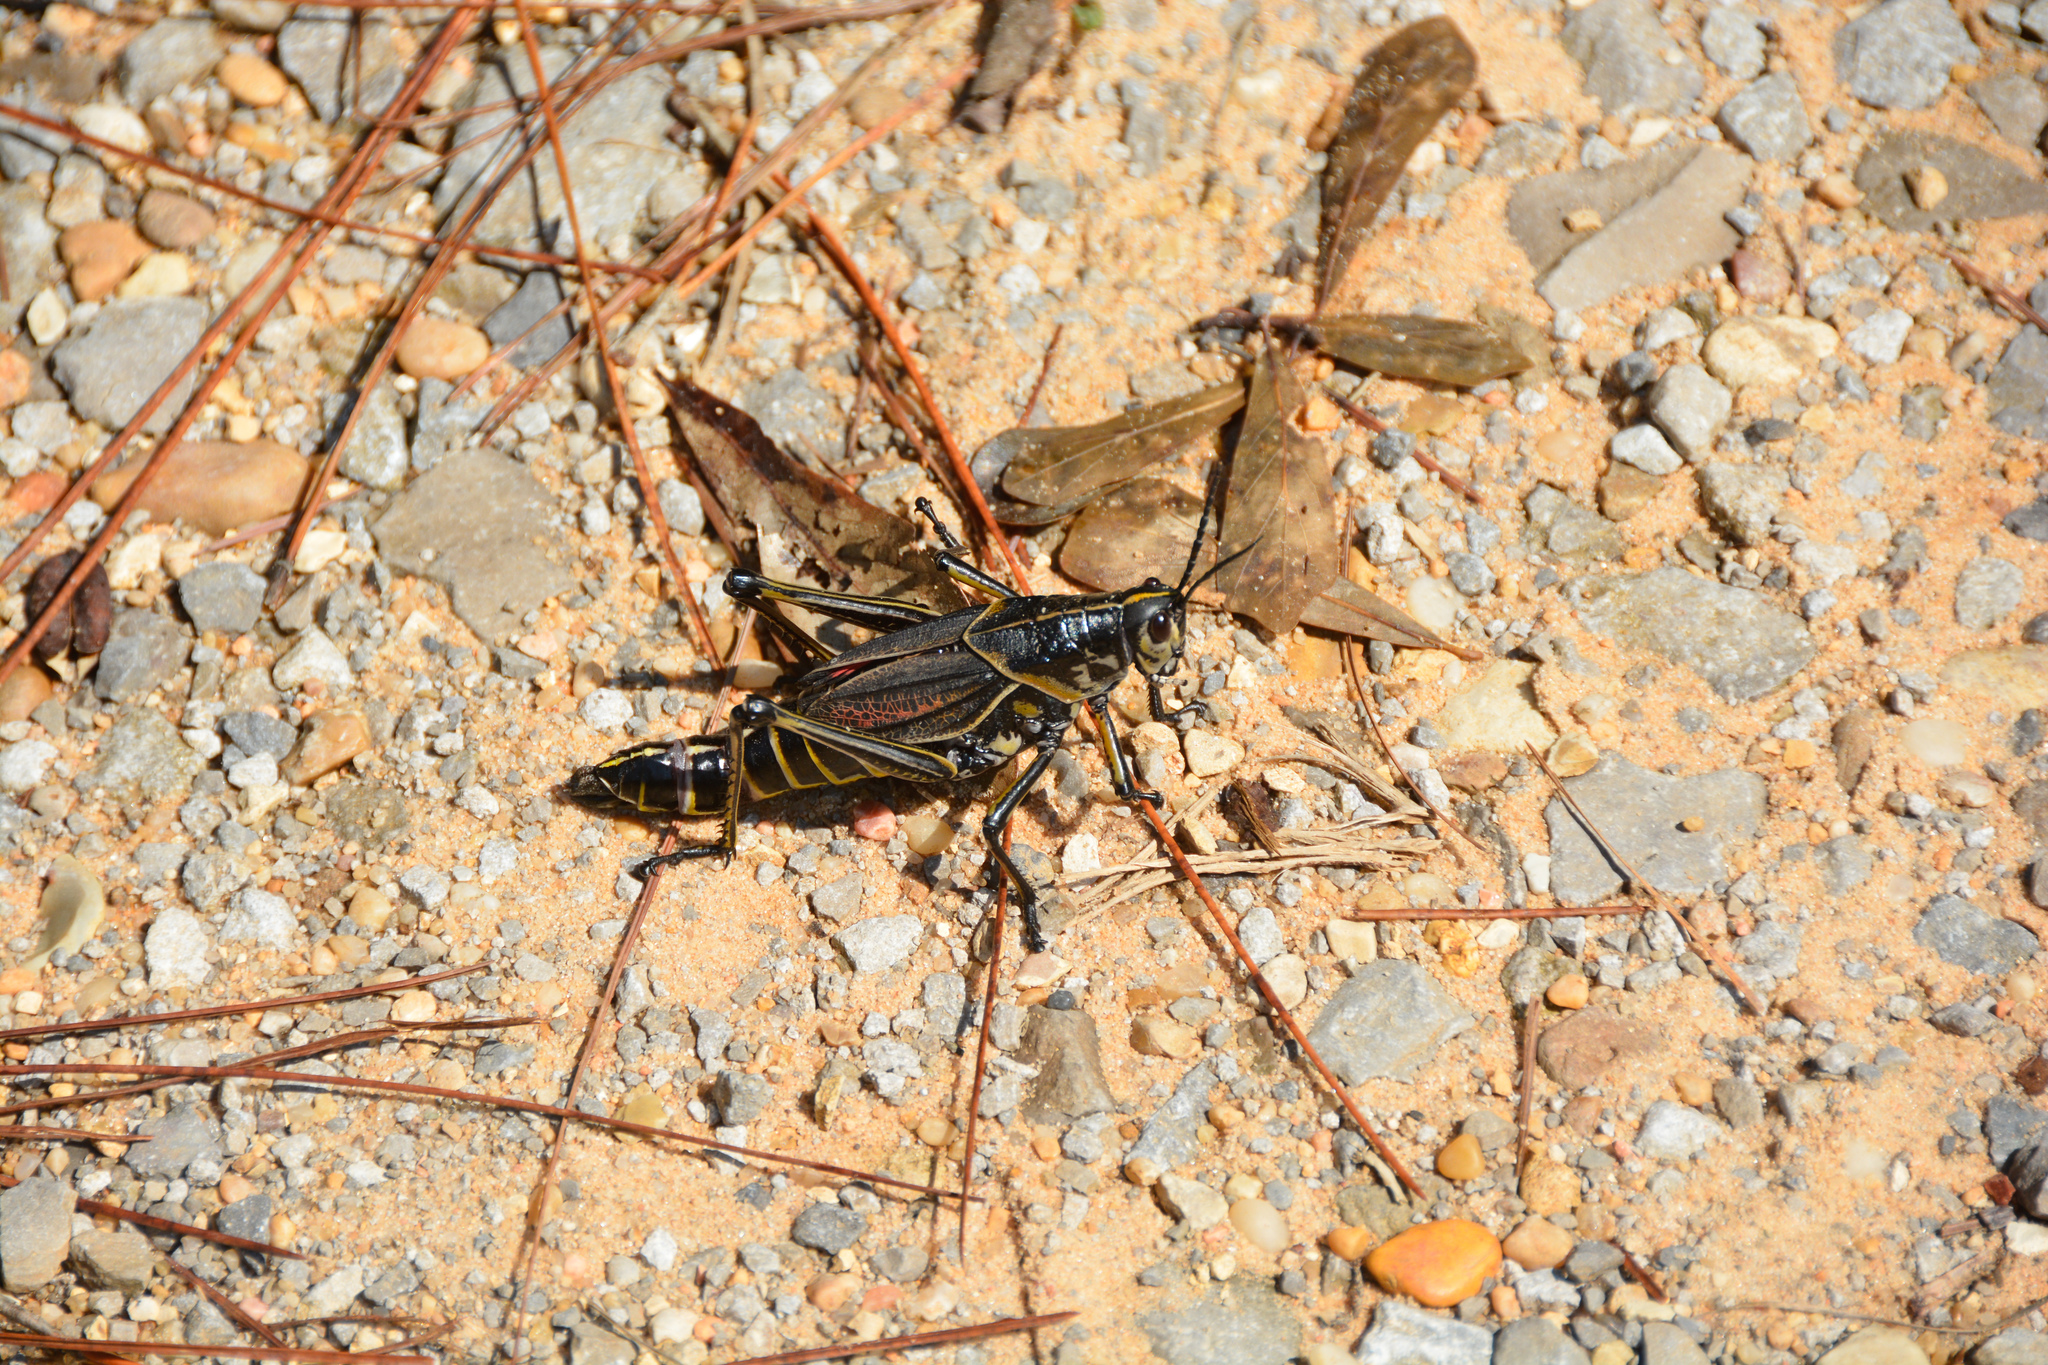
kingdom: Animalia
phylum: Arthropoda
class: Insecta
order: Orthoptera
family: Romaleidae
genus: Romalea
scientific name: Romalea microptera
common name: Eastern lubber grasshopper
